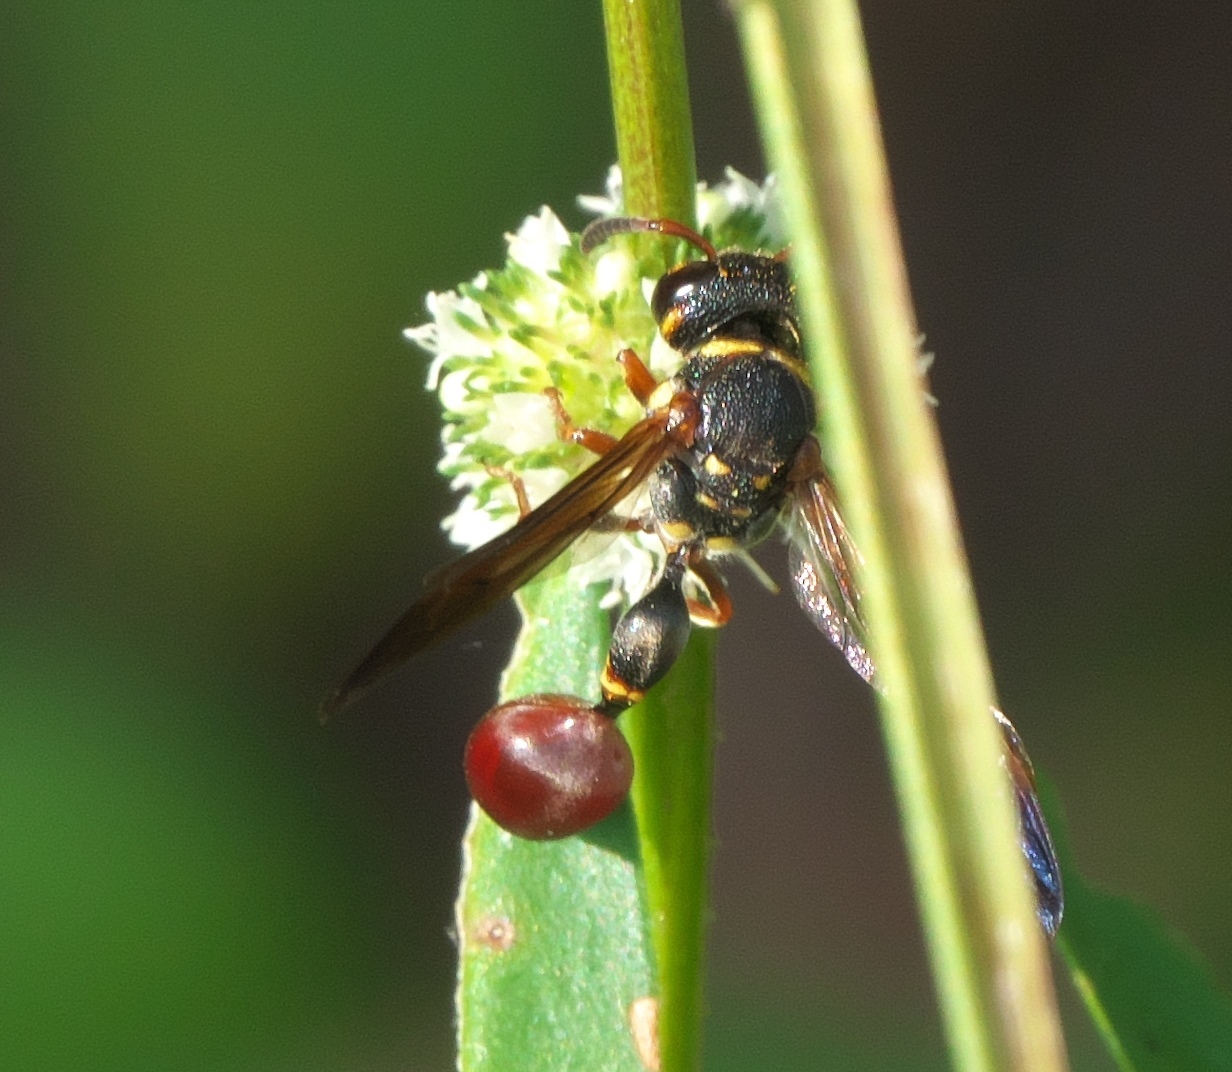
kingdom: Animalia
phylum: Arthropoda
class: Insecta
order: Hymenoptera
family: Eumenidae
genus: Zethus
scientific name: Zethus slossonae
